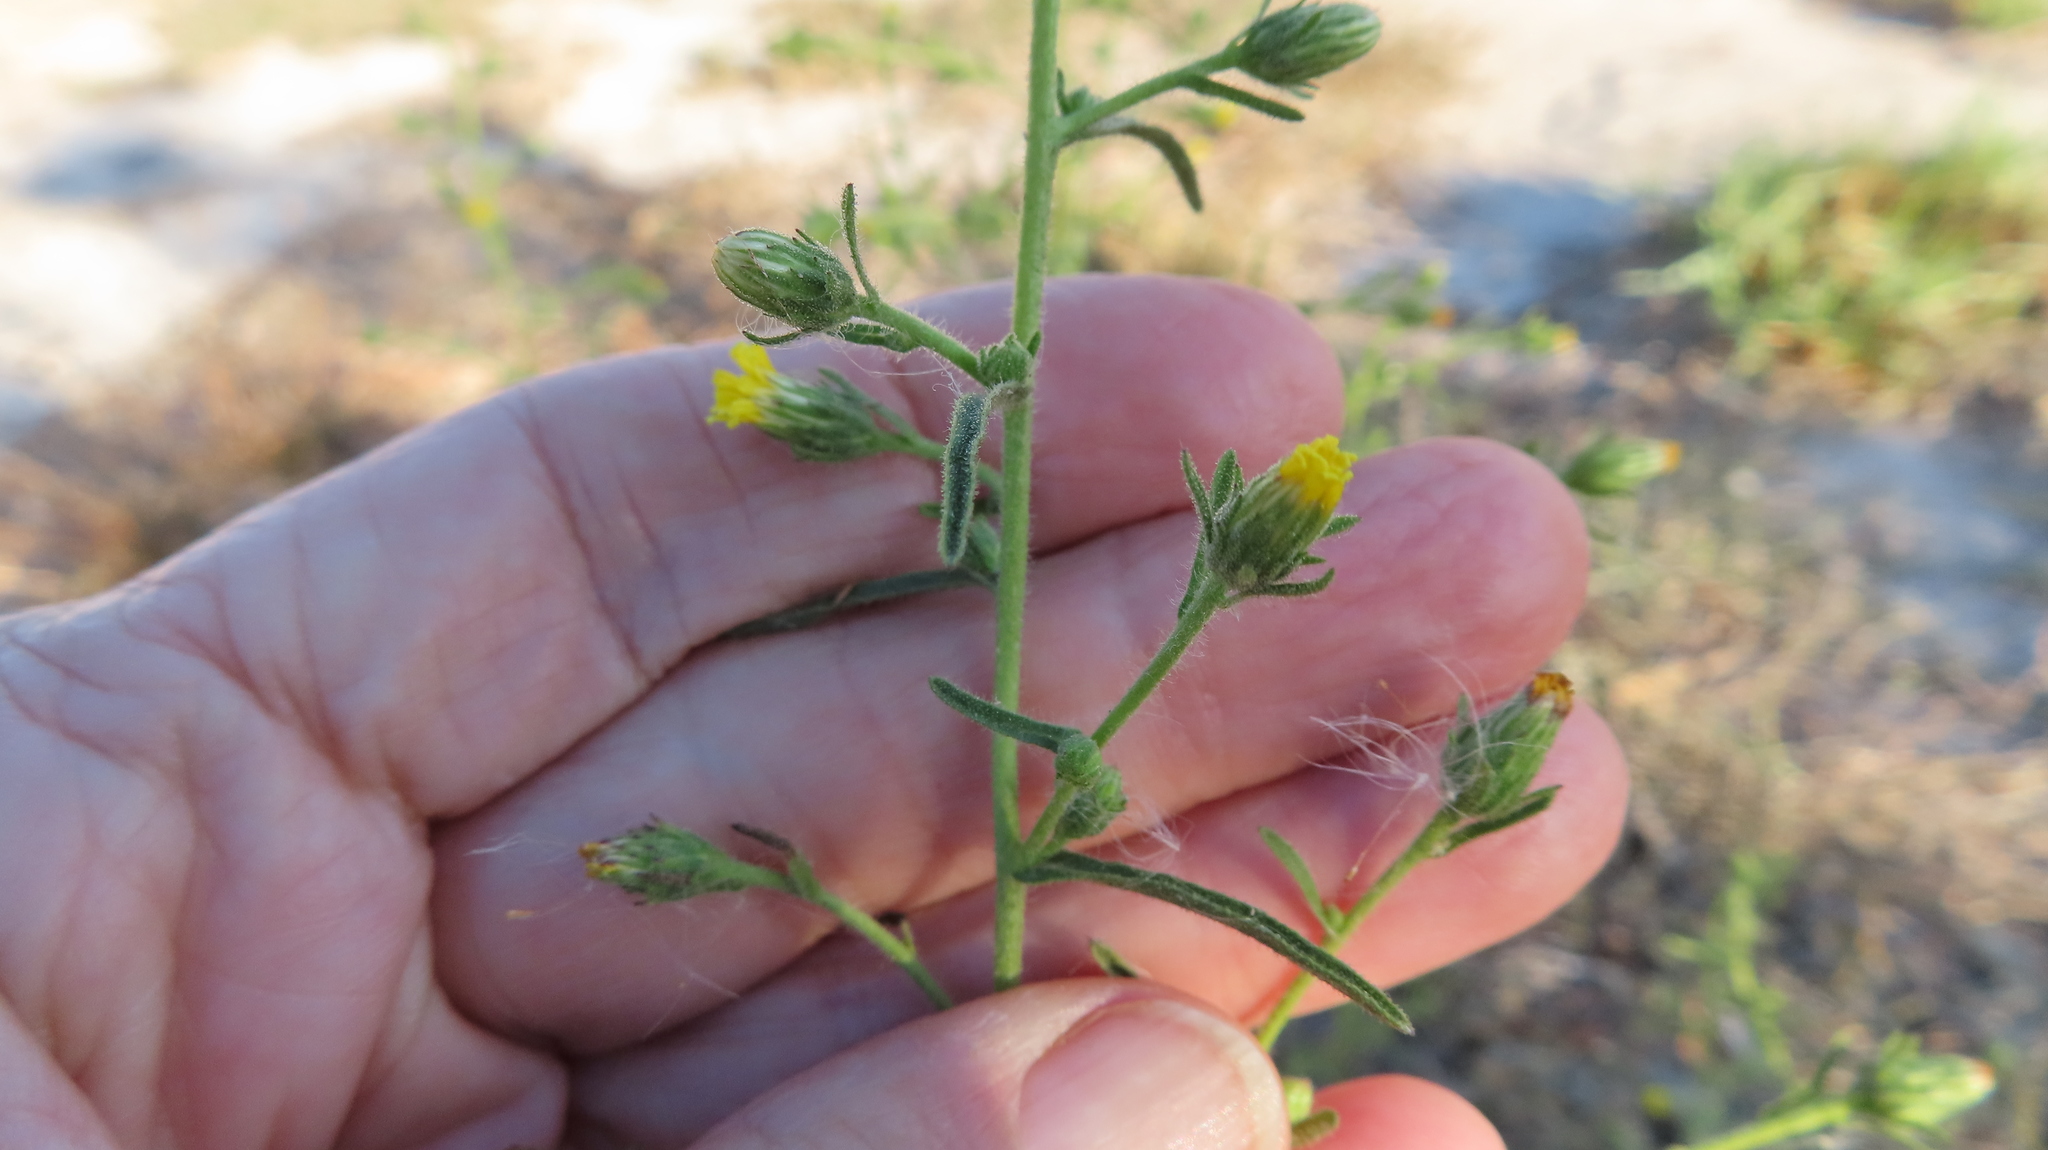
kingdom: Plantae
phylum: Tracheophyta
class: Magnoliopsida
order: Asterales
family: Asteraceae
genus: Dittrichia
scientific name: Dittrichia graveolens
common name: Stinking fleabane
